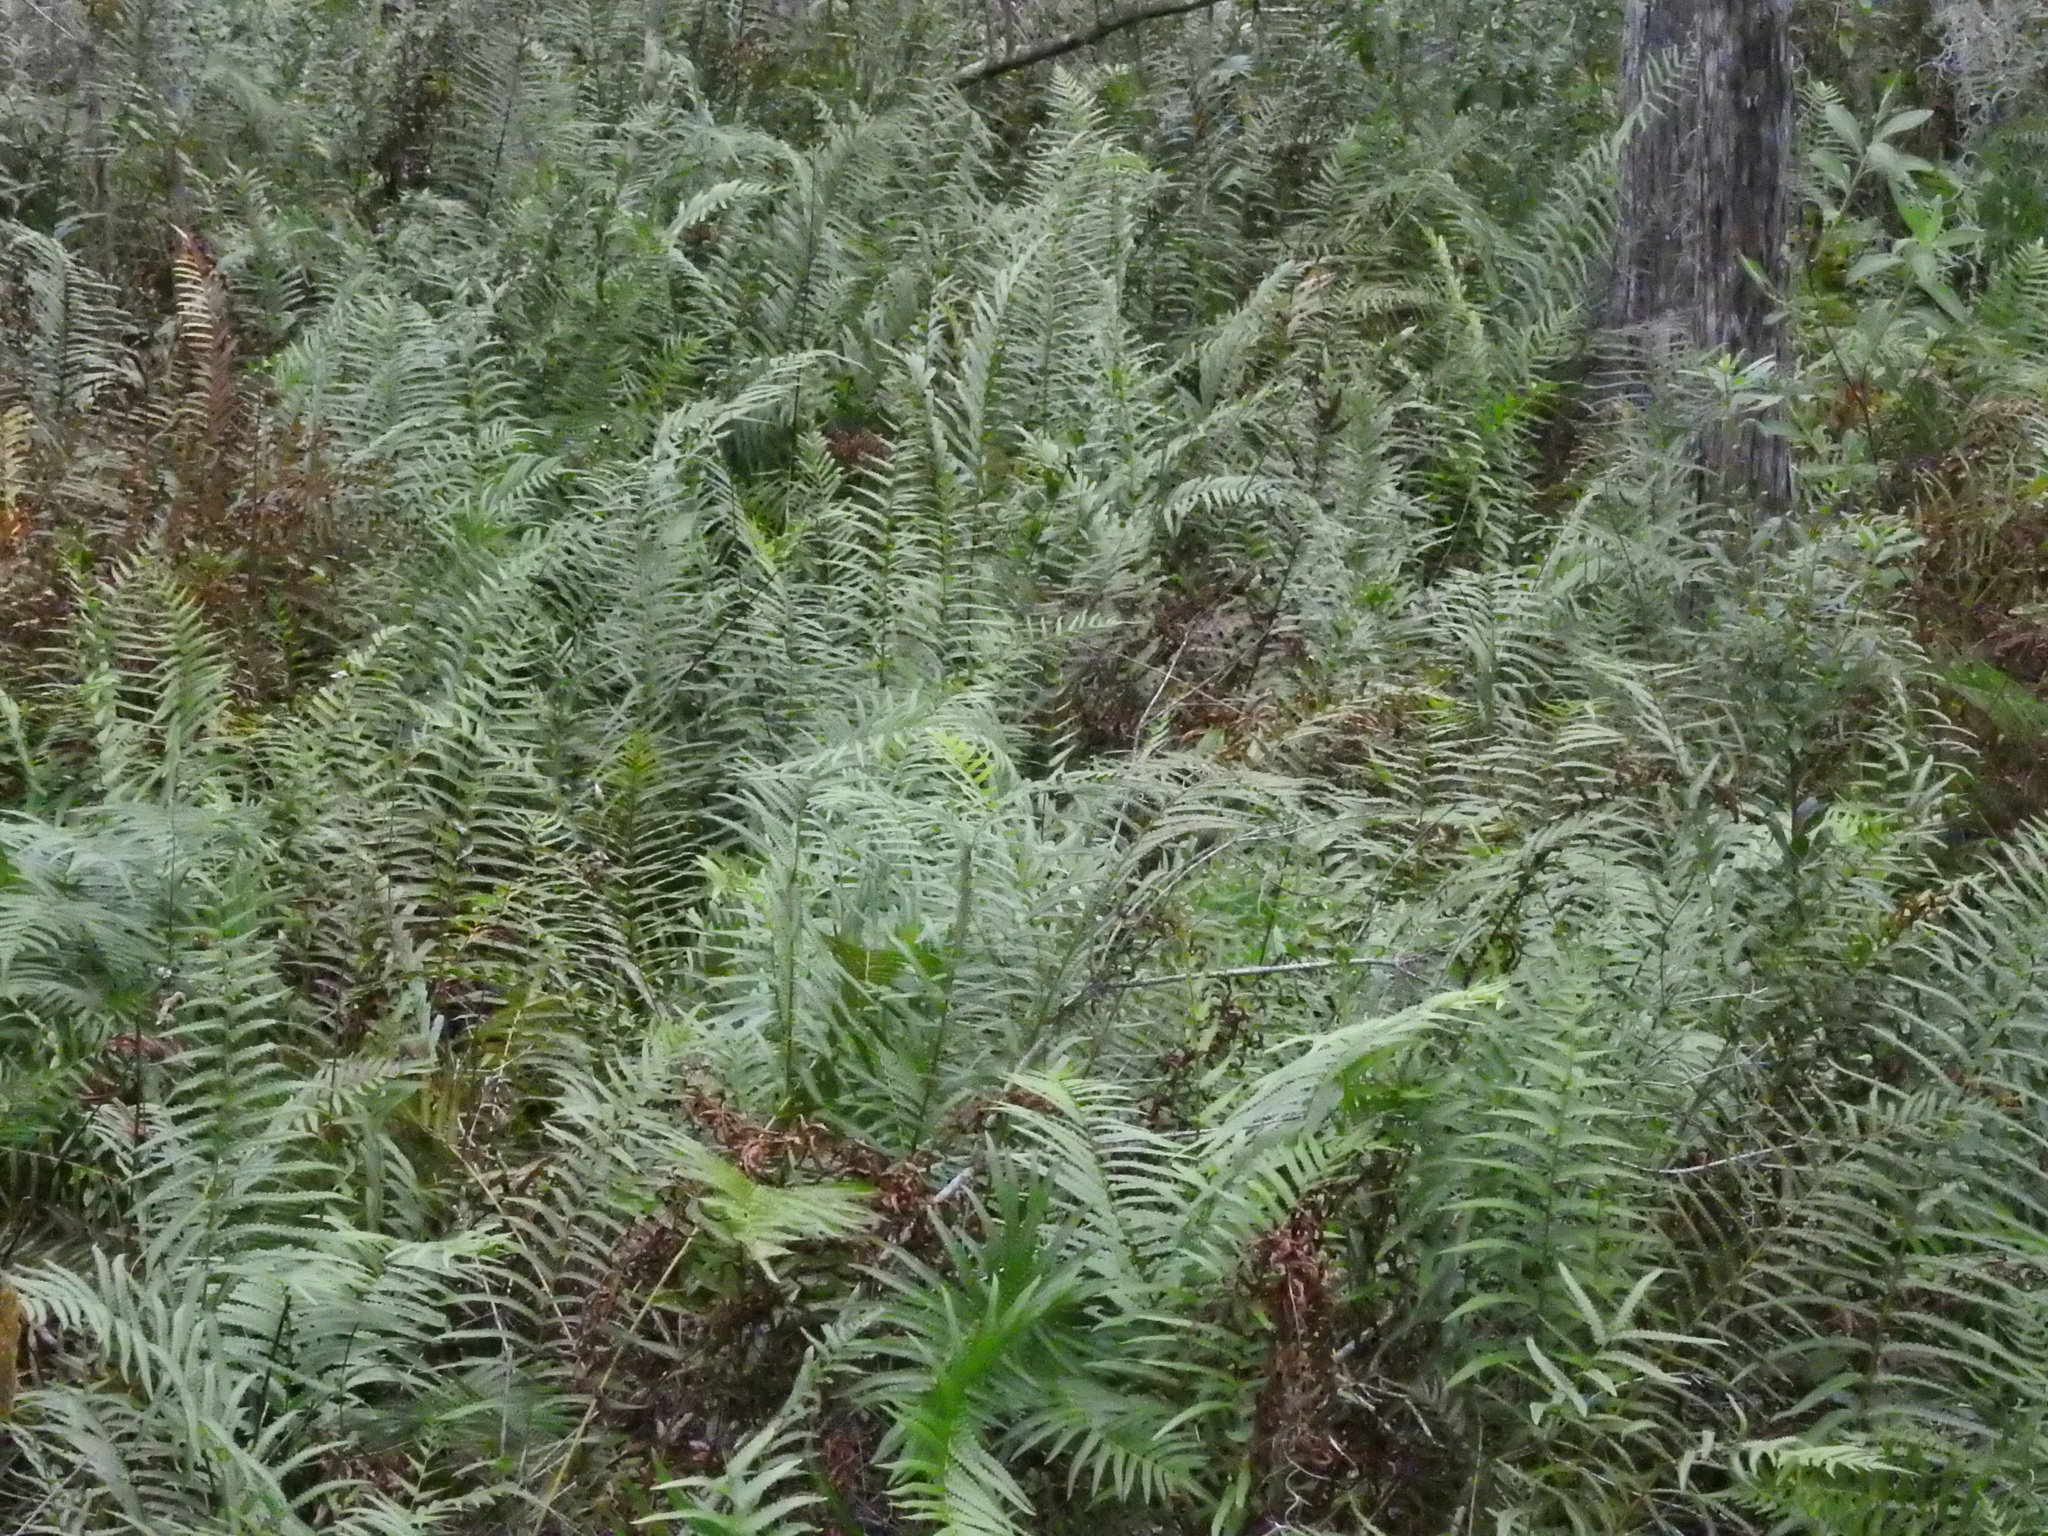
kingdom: Plantae
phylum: Tracheophyta
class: Polypodiopsida
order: Polypodiales
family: Thelypteridaceae
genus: Cyclosorus
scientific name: Cyclosorus interruptus
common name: Neke fern
